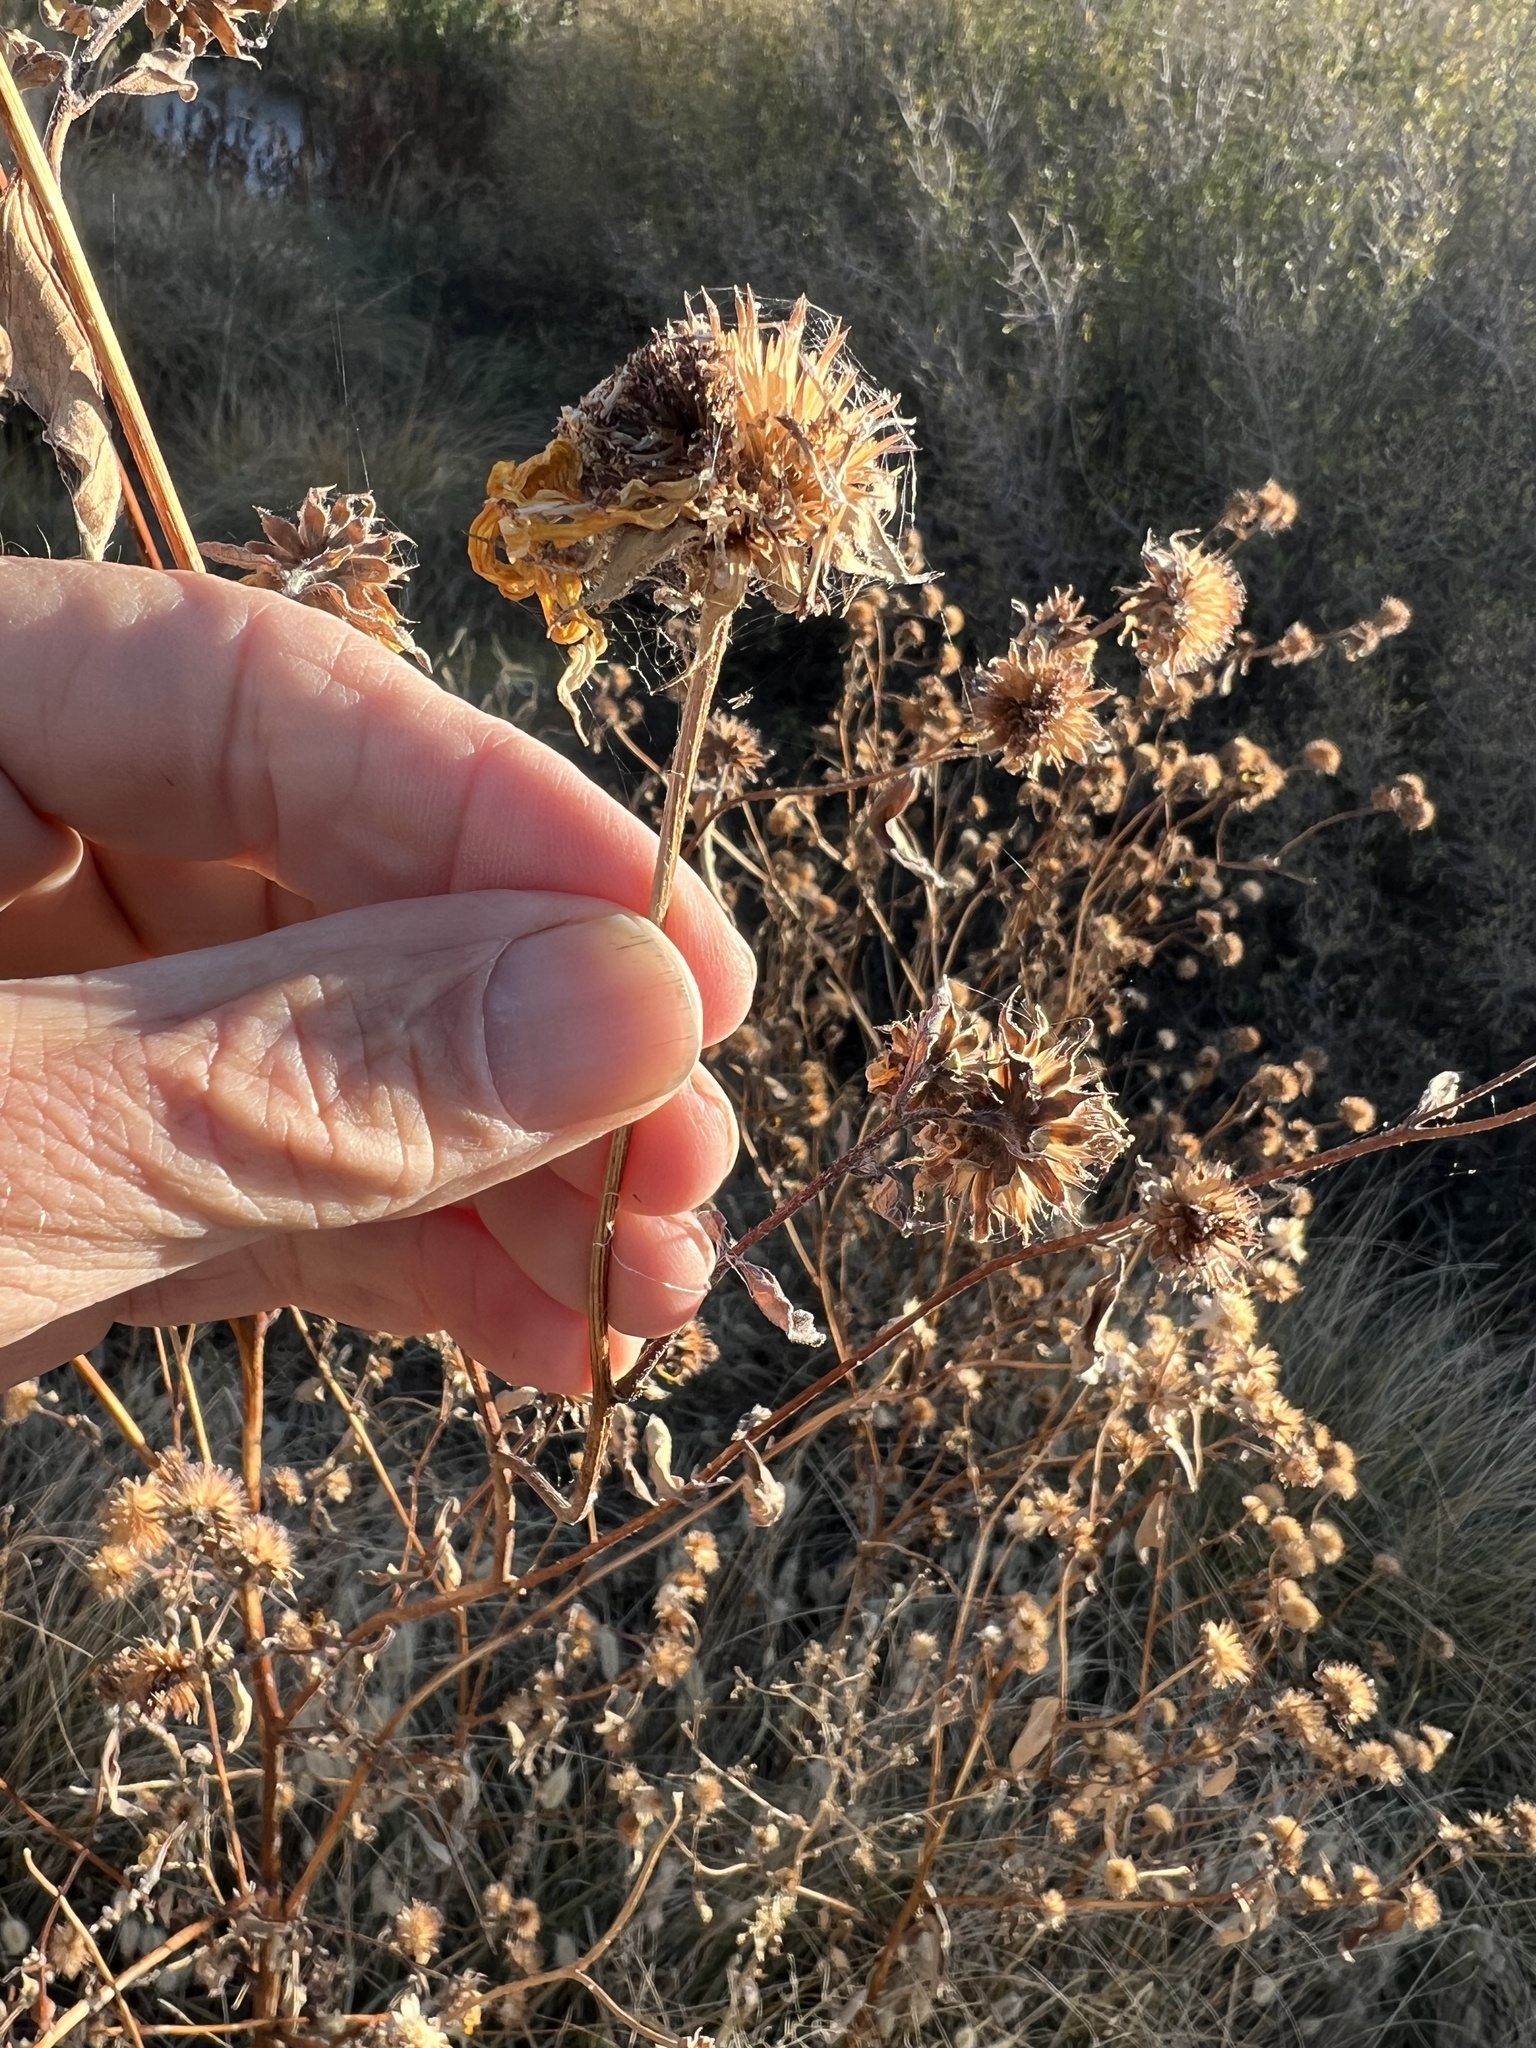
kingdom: Plantae
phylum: Tracheophyta
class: Magnoliopsida
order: Asterales
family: Asteraceae
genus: Helianthus
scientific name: Helianthus annuus
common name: Sunflower
